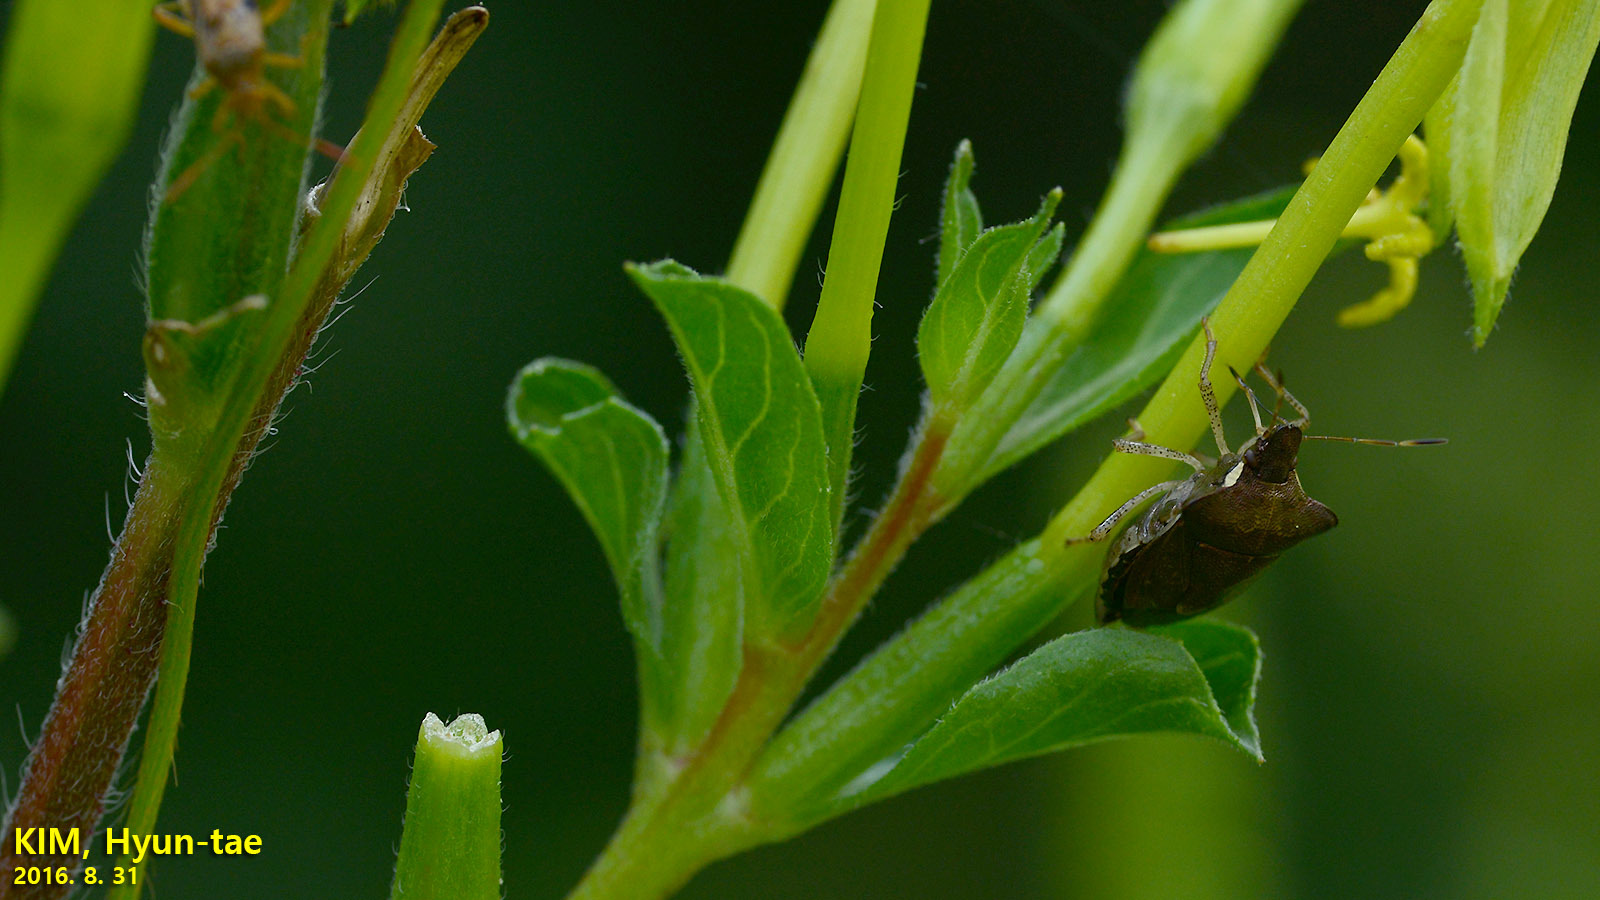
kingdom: Animalia
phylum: Arthropoda
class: Insecta
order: Hemiptera
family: Pentatomidae
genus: Carbula
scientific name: Carbula putoni
